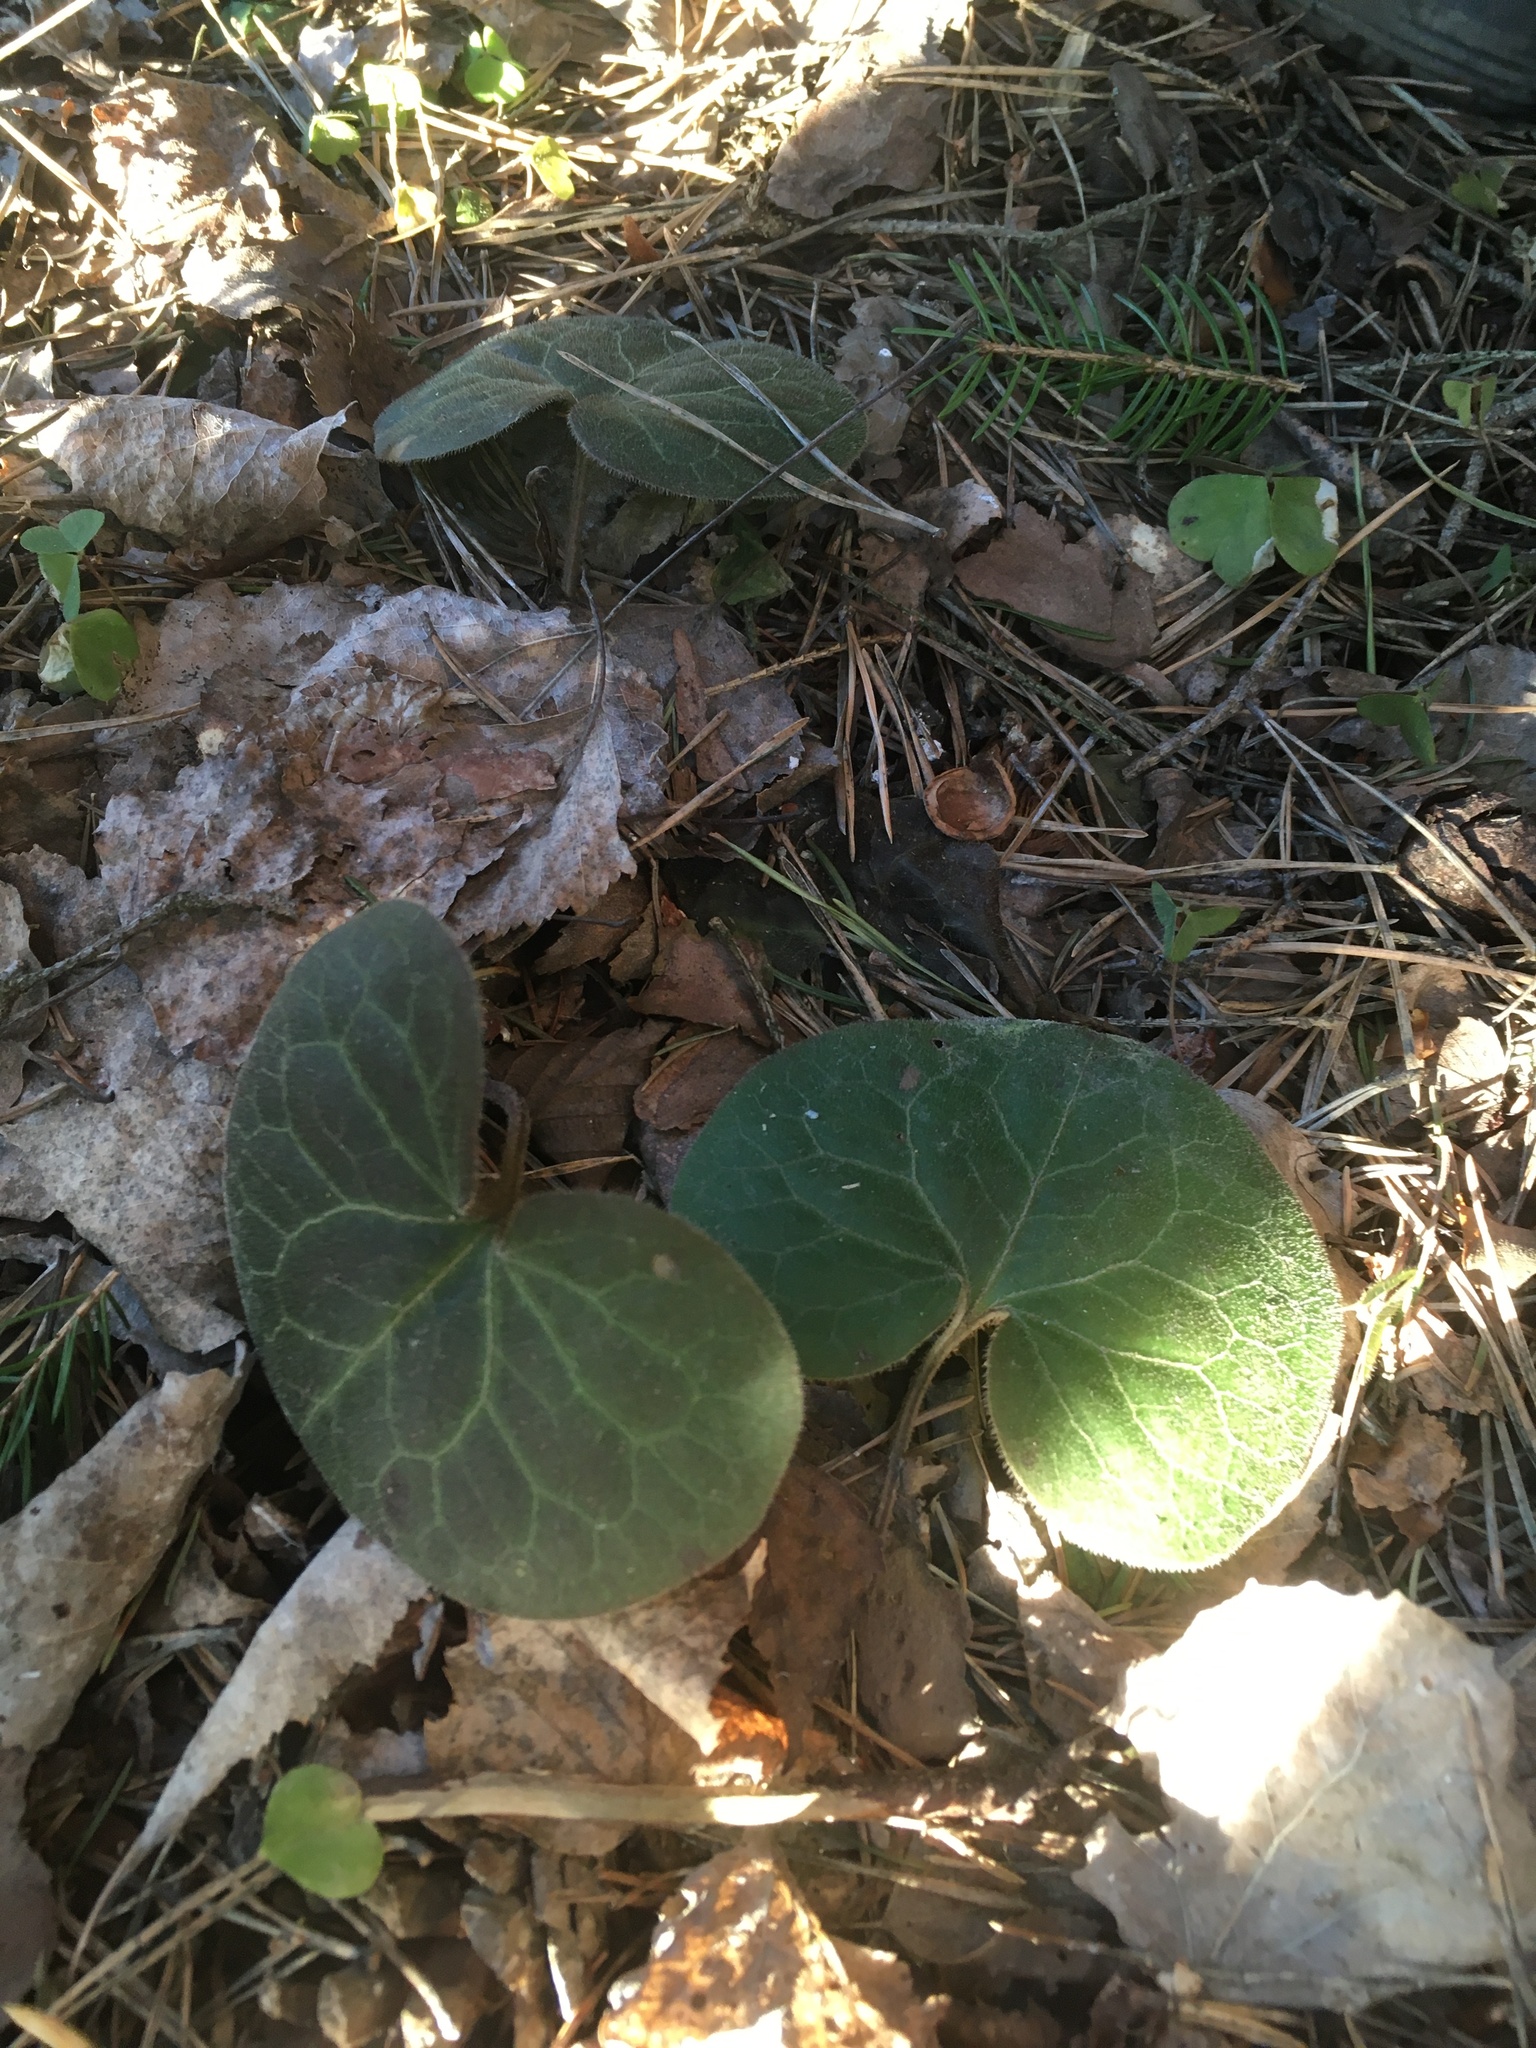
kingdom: Plantae
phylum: Tracheophyta
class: Magnoliopsida
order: Piperales
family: Aristolochiaceae
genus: Asarum
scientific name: Asarum europaeum
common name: Asarabacca
